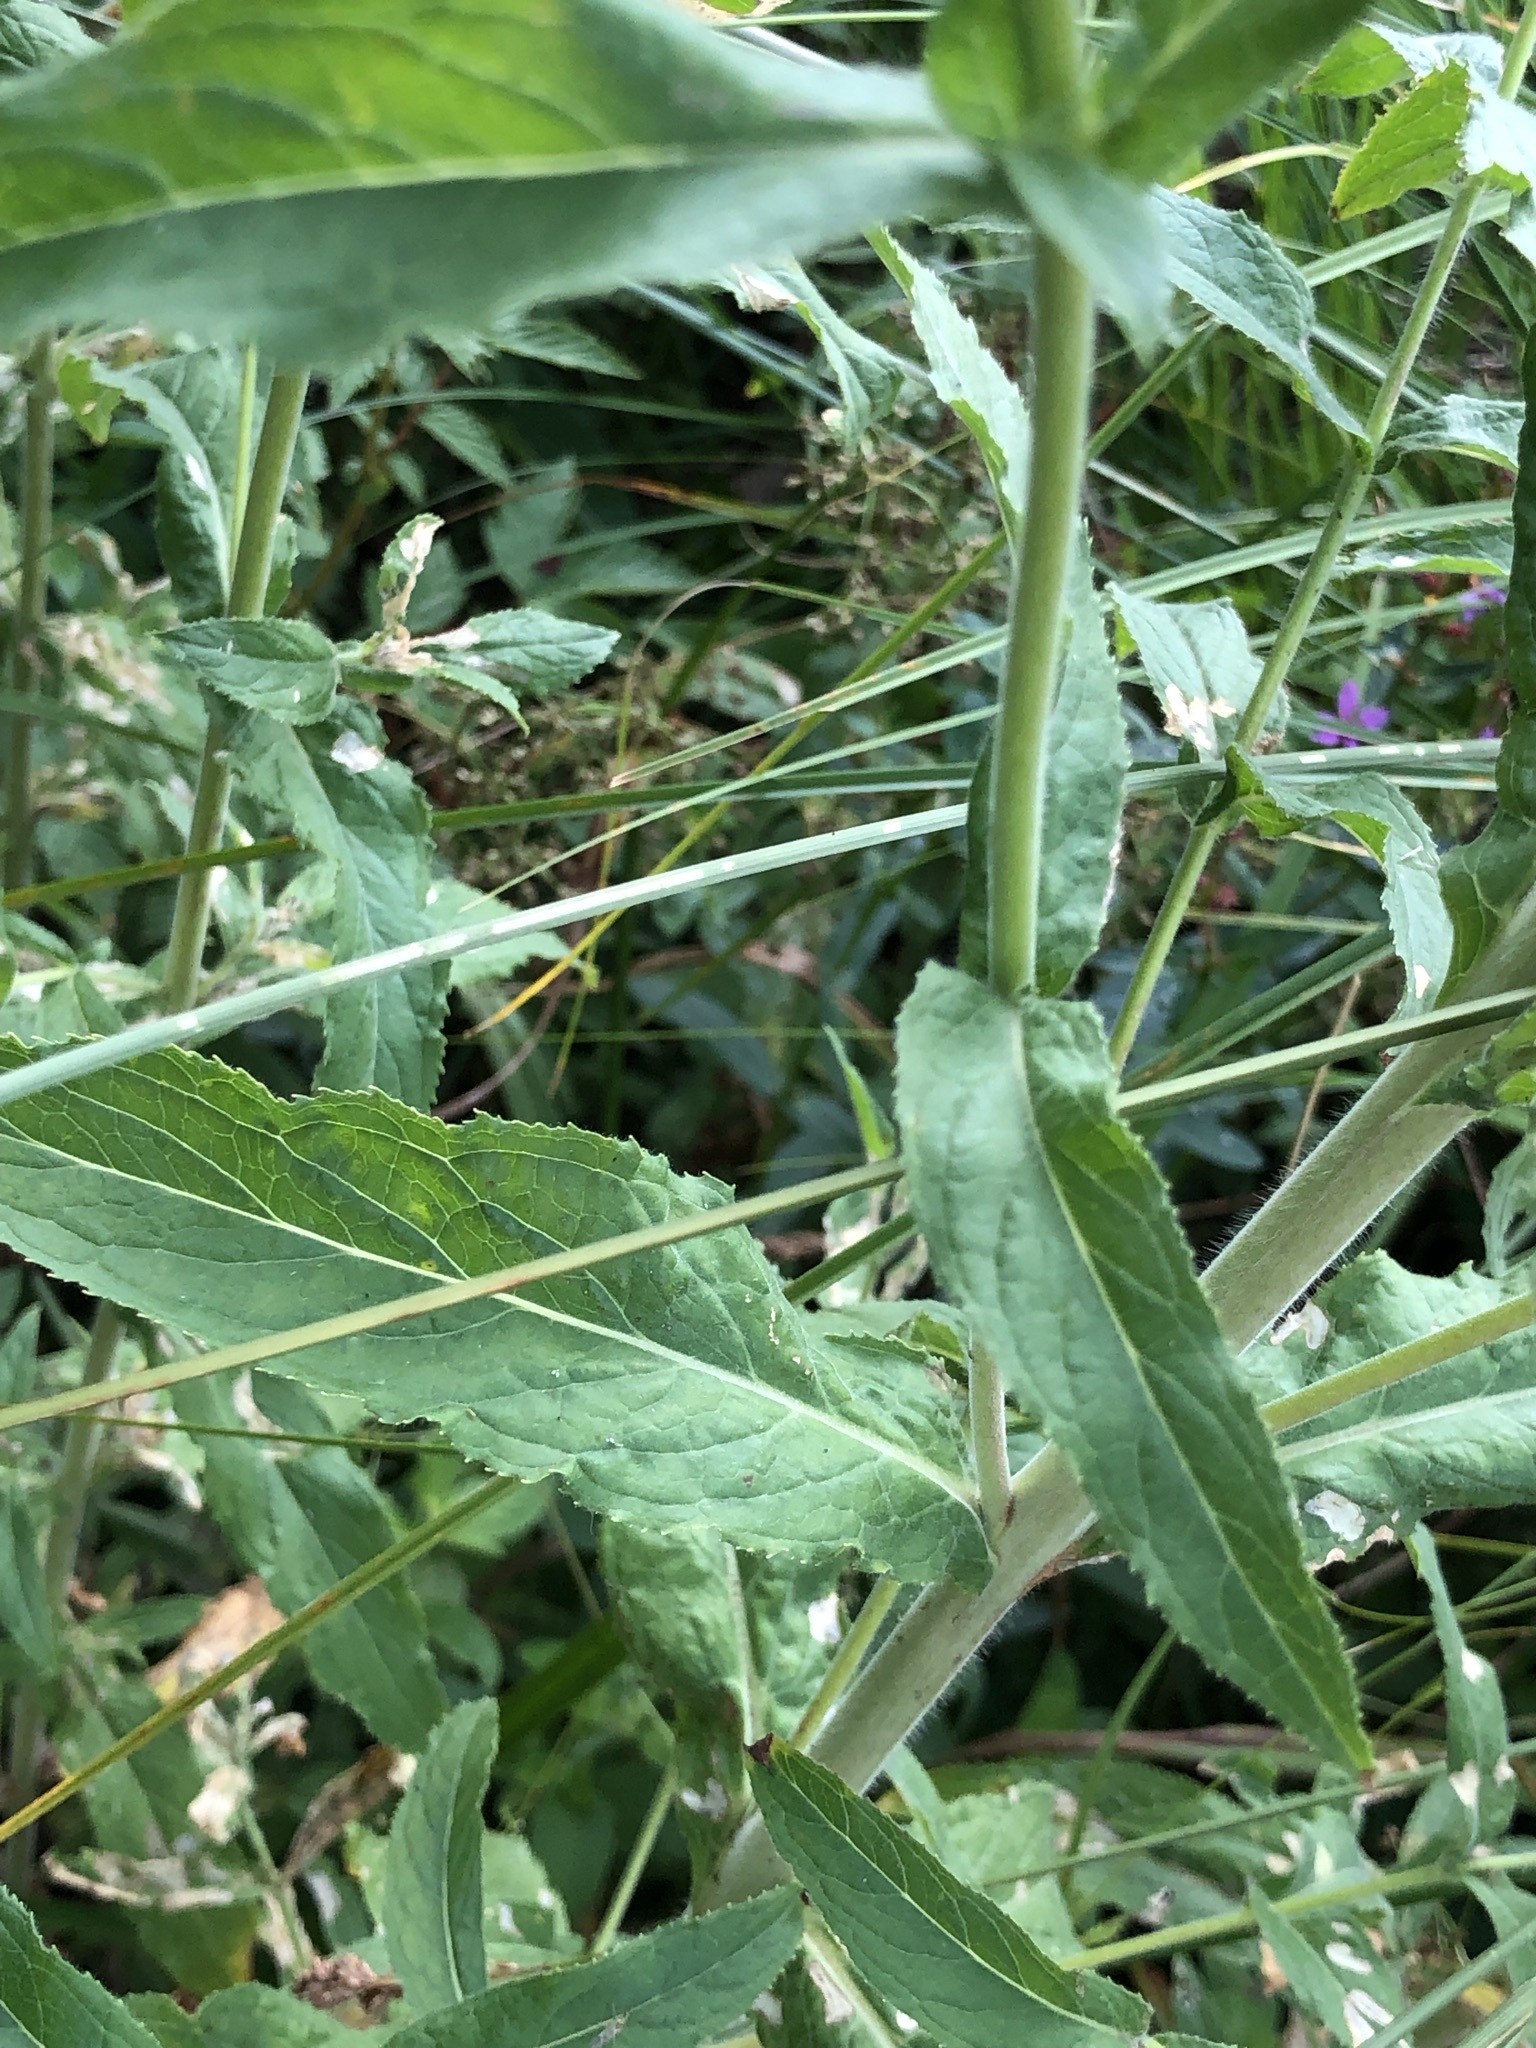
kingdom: Plantae
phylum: Tracheophyta
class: Magnoliopsida
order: Myrtales
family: Onagraceae
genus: Epilobium
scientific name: Epilobium hirsutum
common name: Great willowherb
